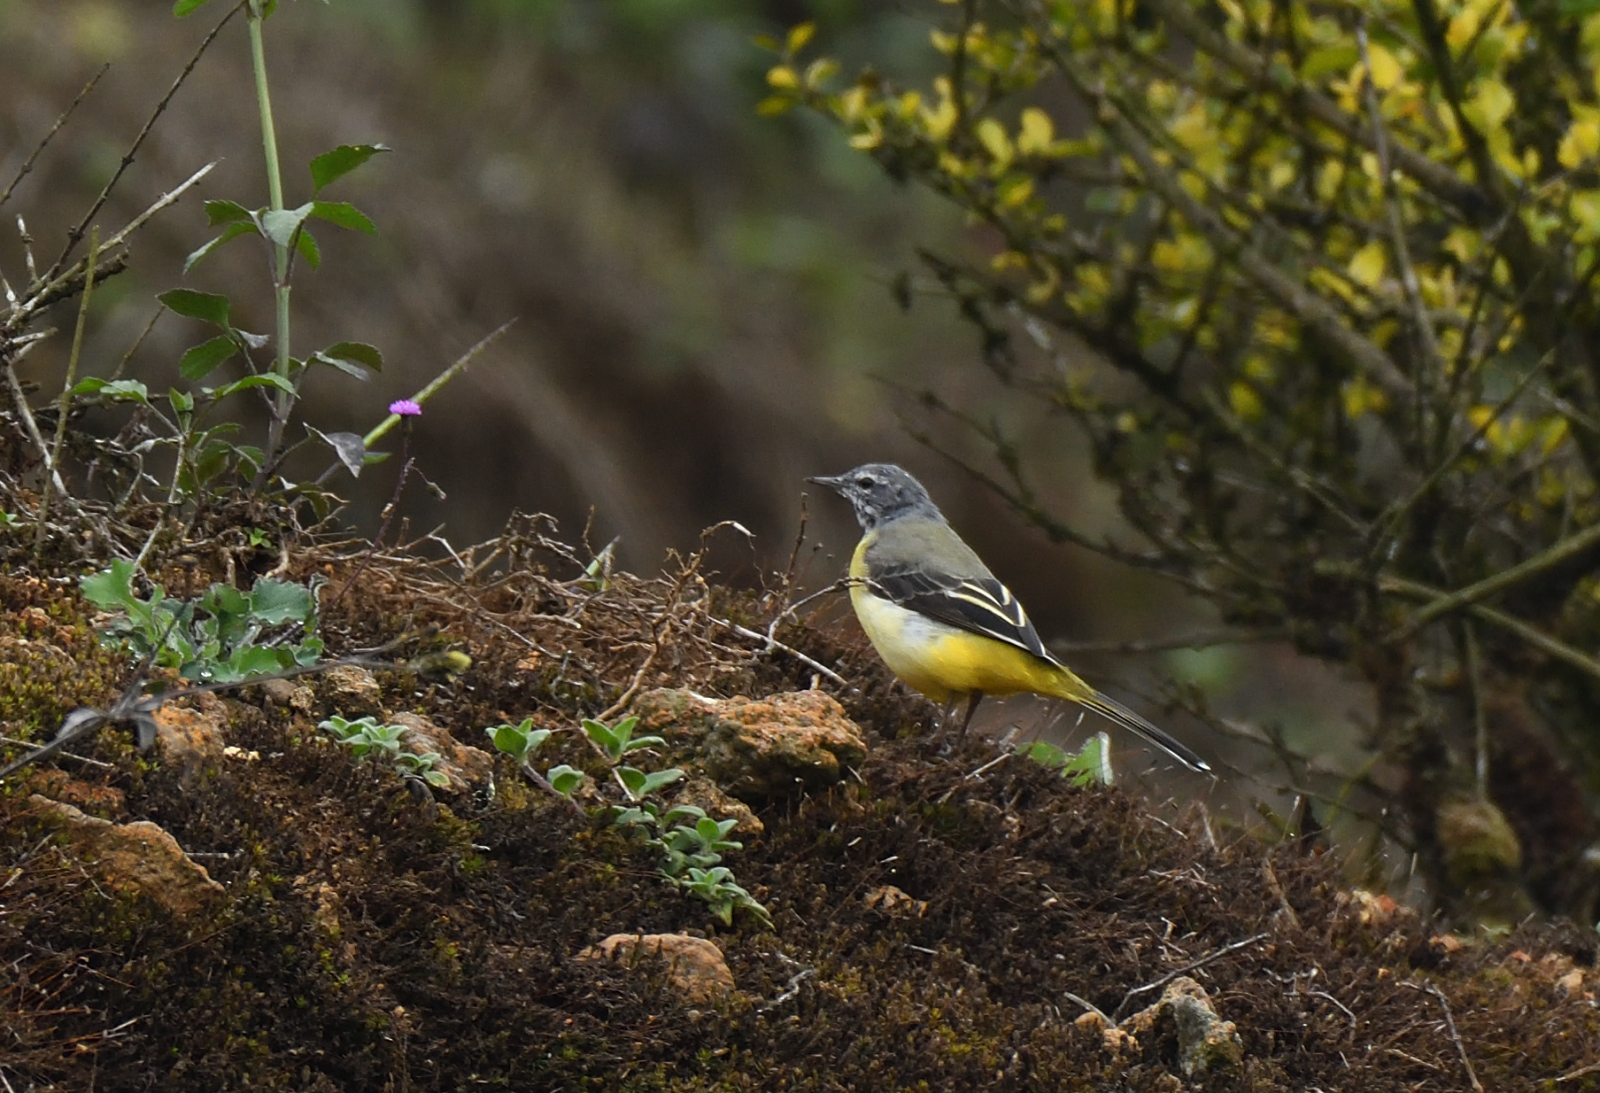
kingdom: Animalia
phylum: Chordata
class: Aves
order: Passeriformes
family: Motacillidae
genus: Motacilla
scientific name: Motacilla cinerea
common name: Grey wagtail
